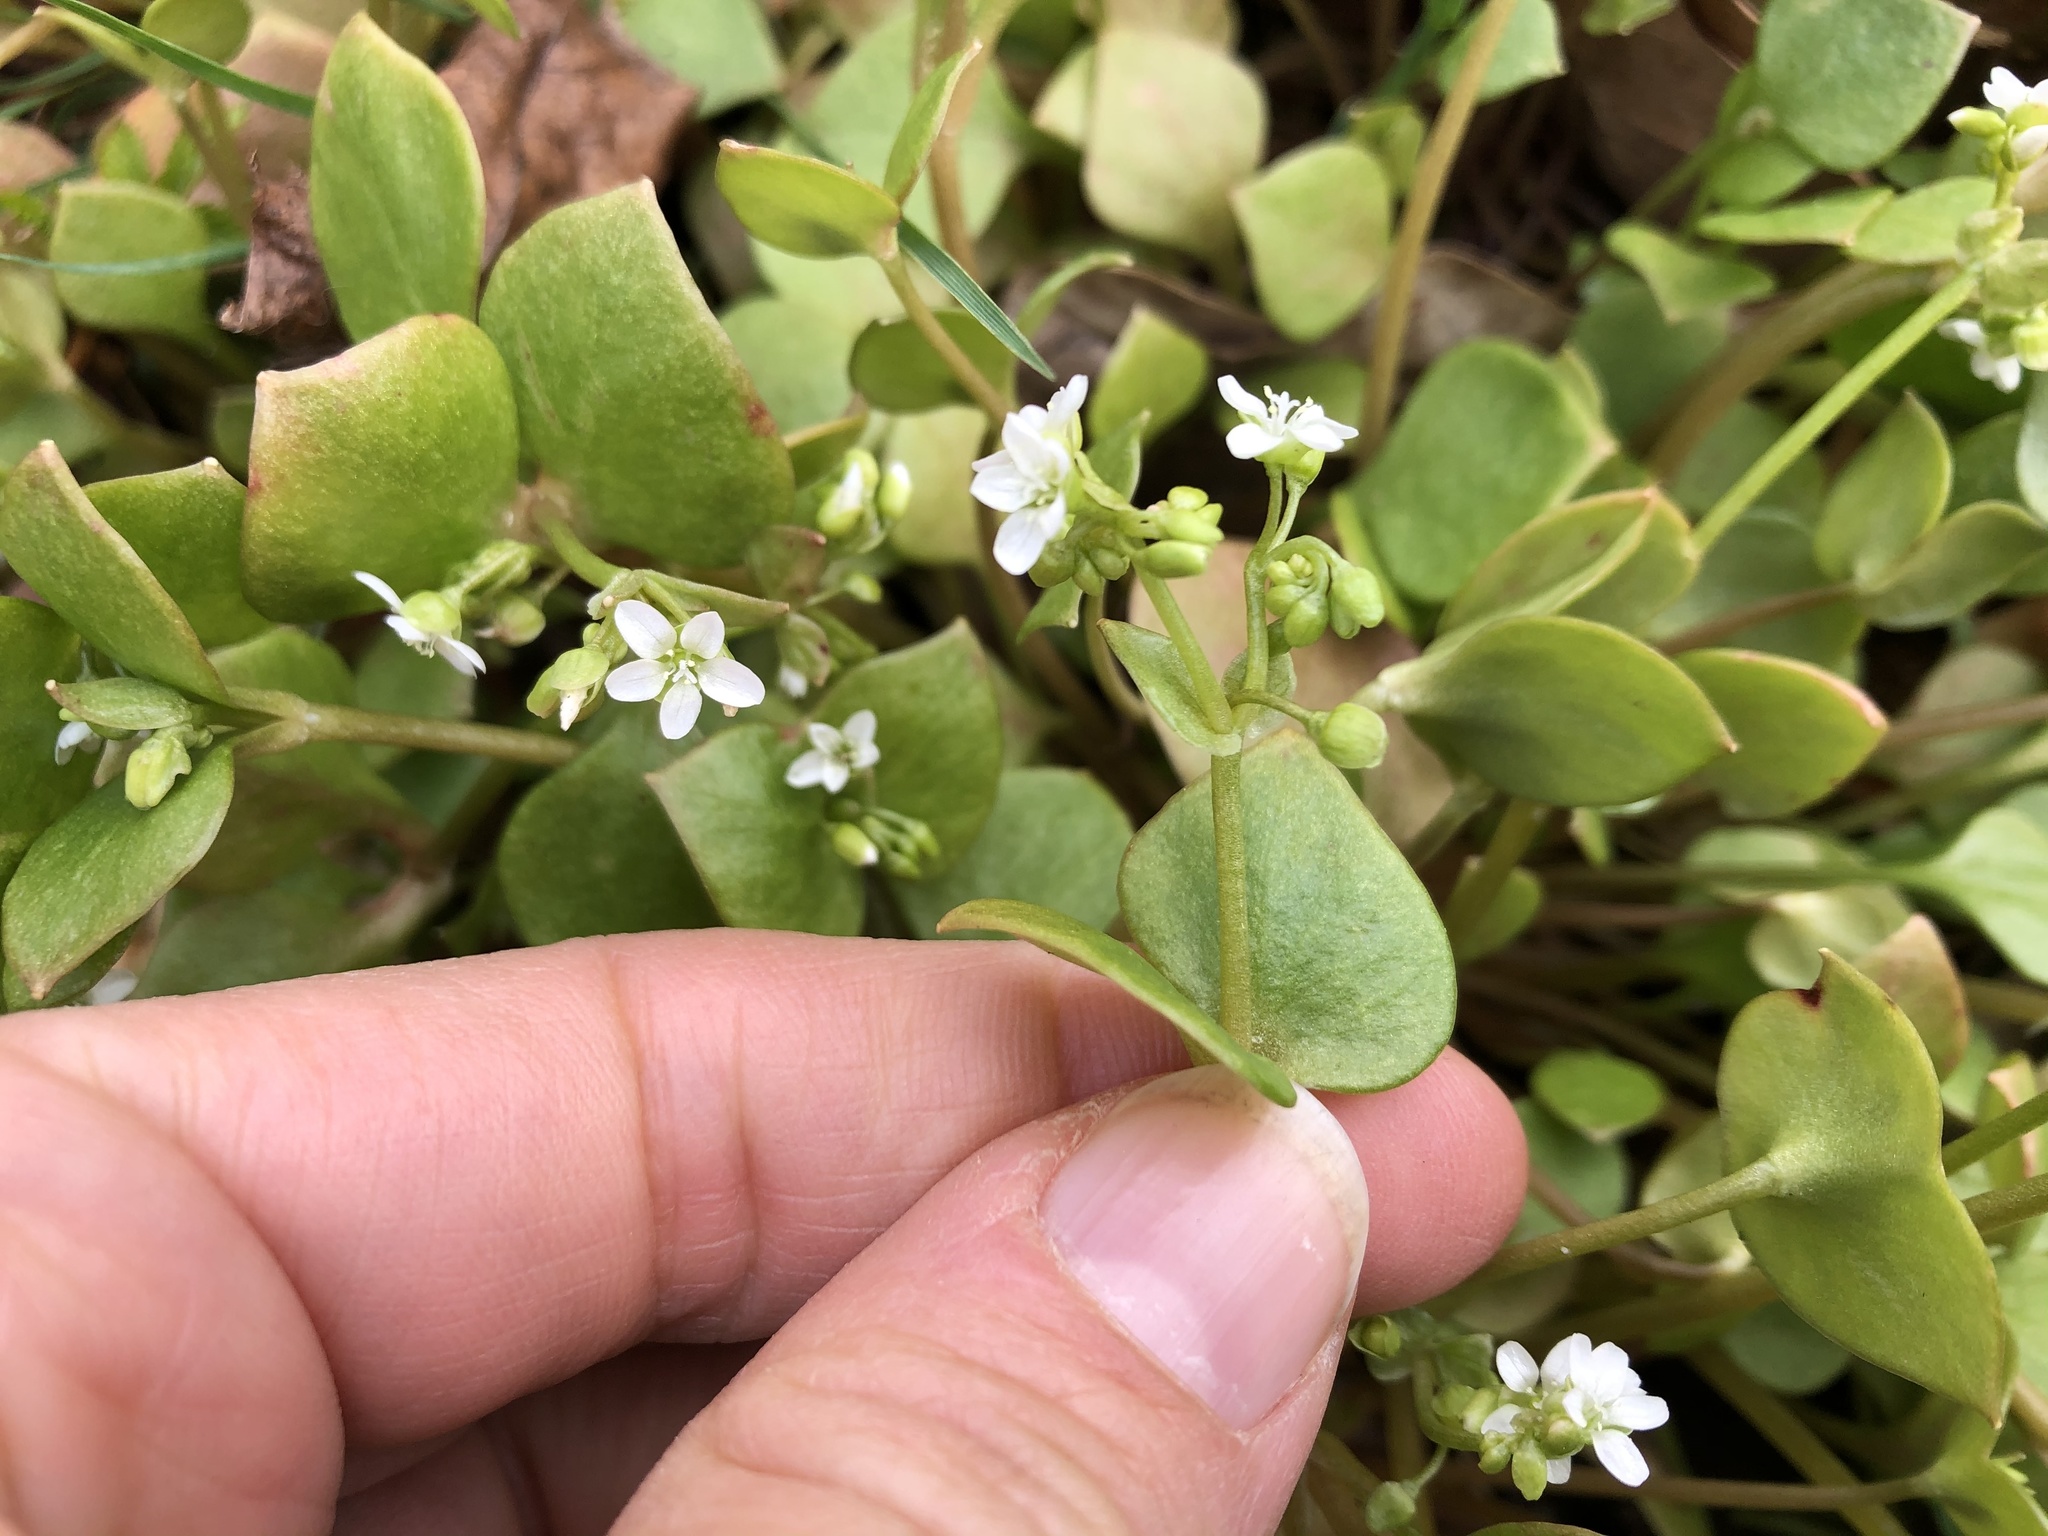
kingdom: Plantae
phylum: Tracheophyta
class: Magnoliopsida
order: Caryophyllales
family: Montiaceae
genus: Claytonia
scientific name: Claytonia perfoliata
